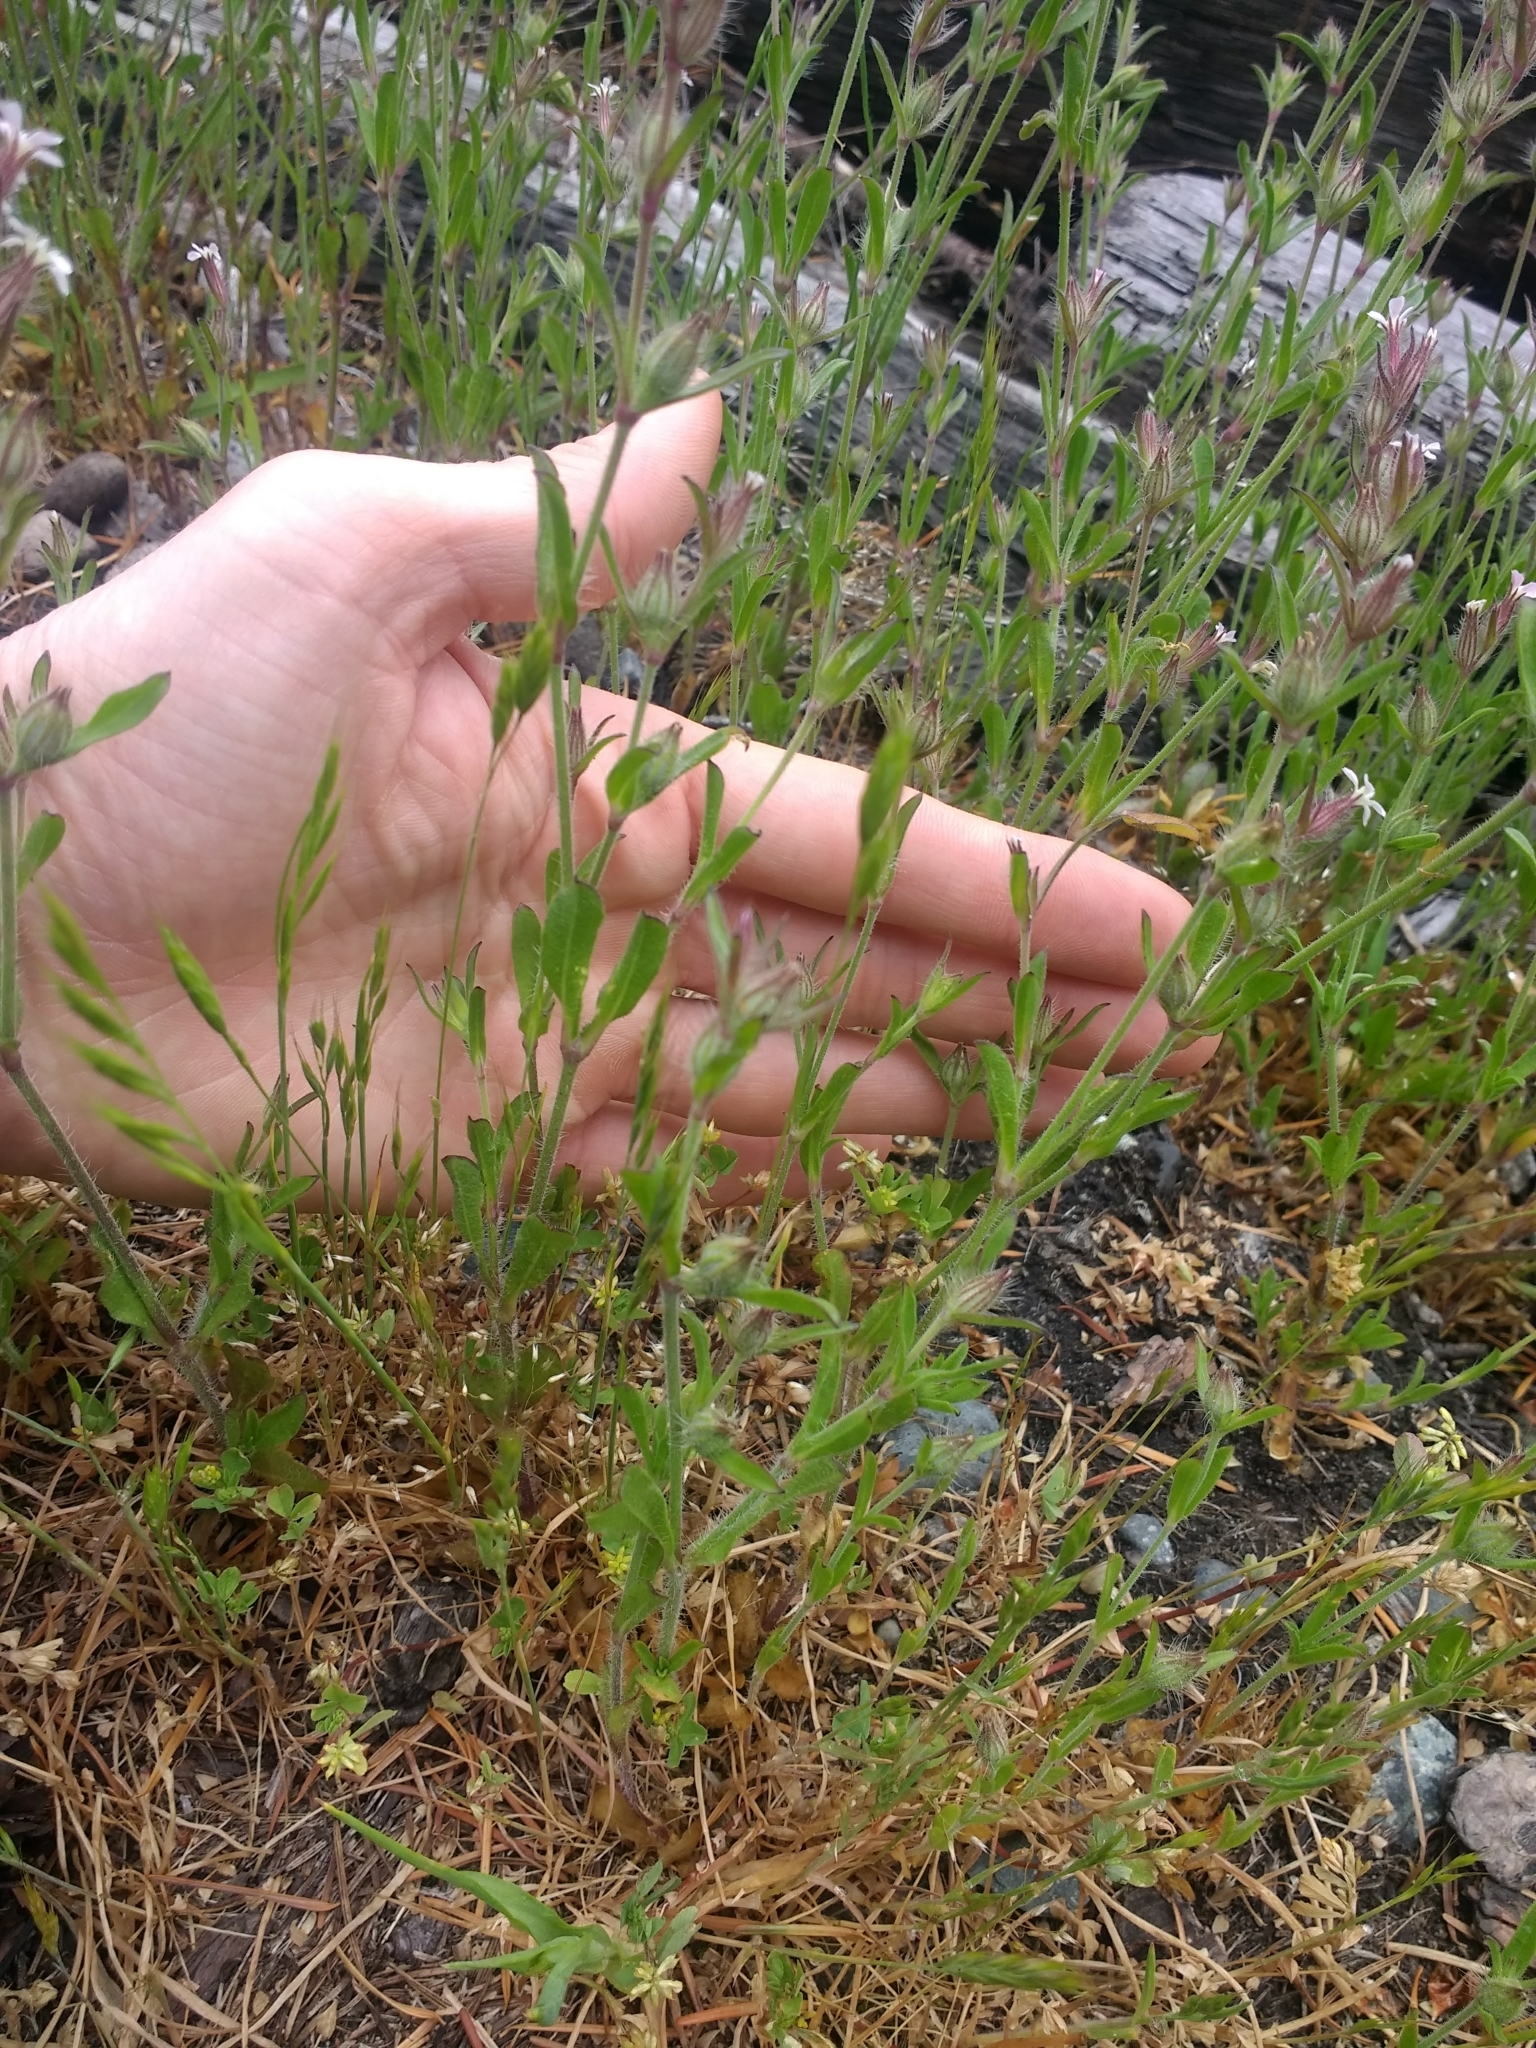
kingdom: Plantae
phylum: Tracheophyta
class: Magnoliopsida
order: Caryophyllales
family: Caryophyllaceae
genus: Silene
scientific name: Silene gallica
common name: Small-flowered catchfly
